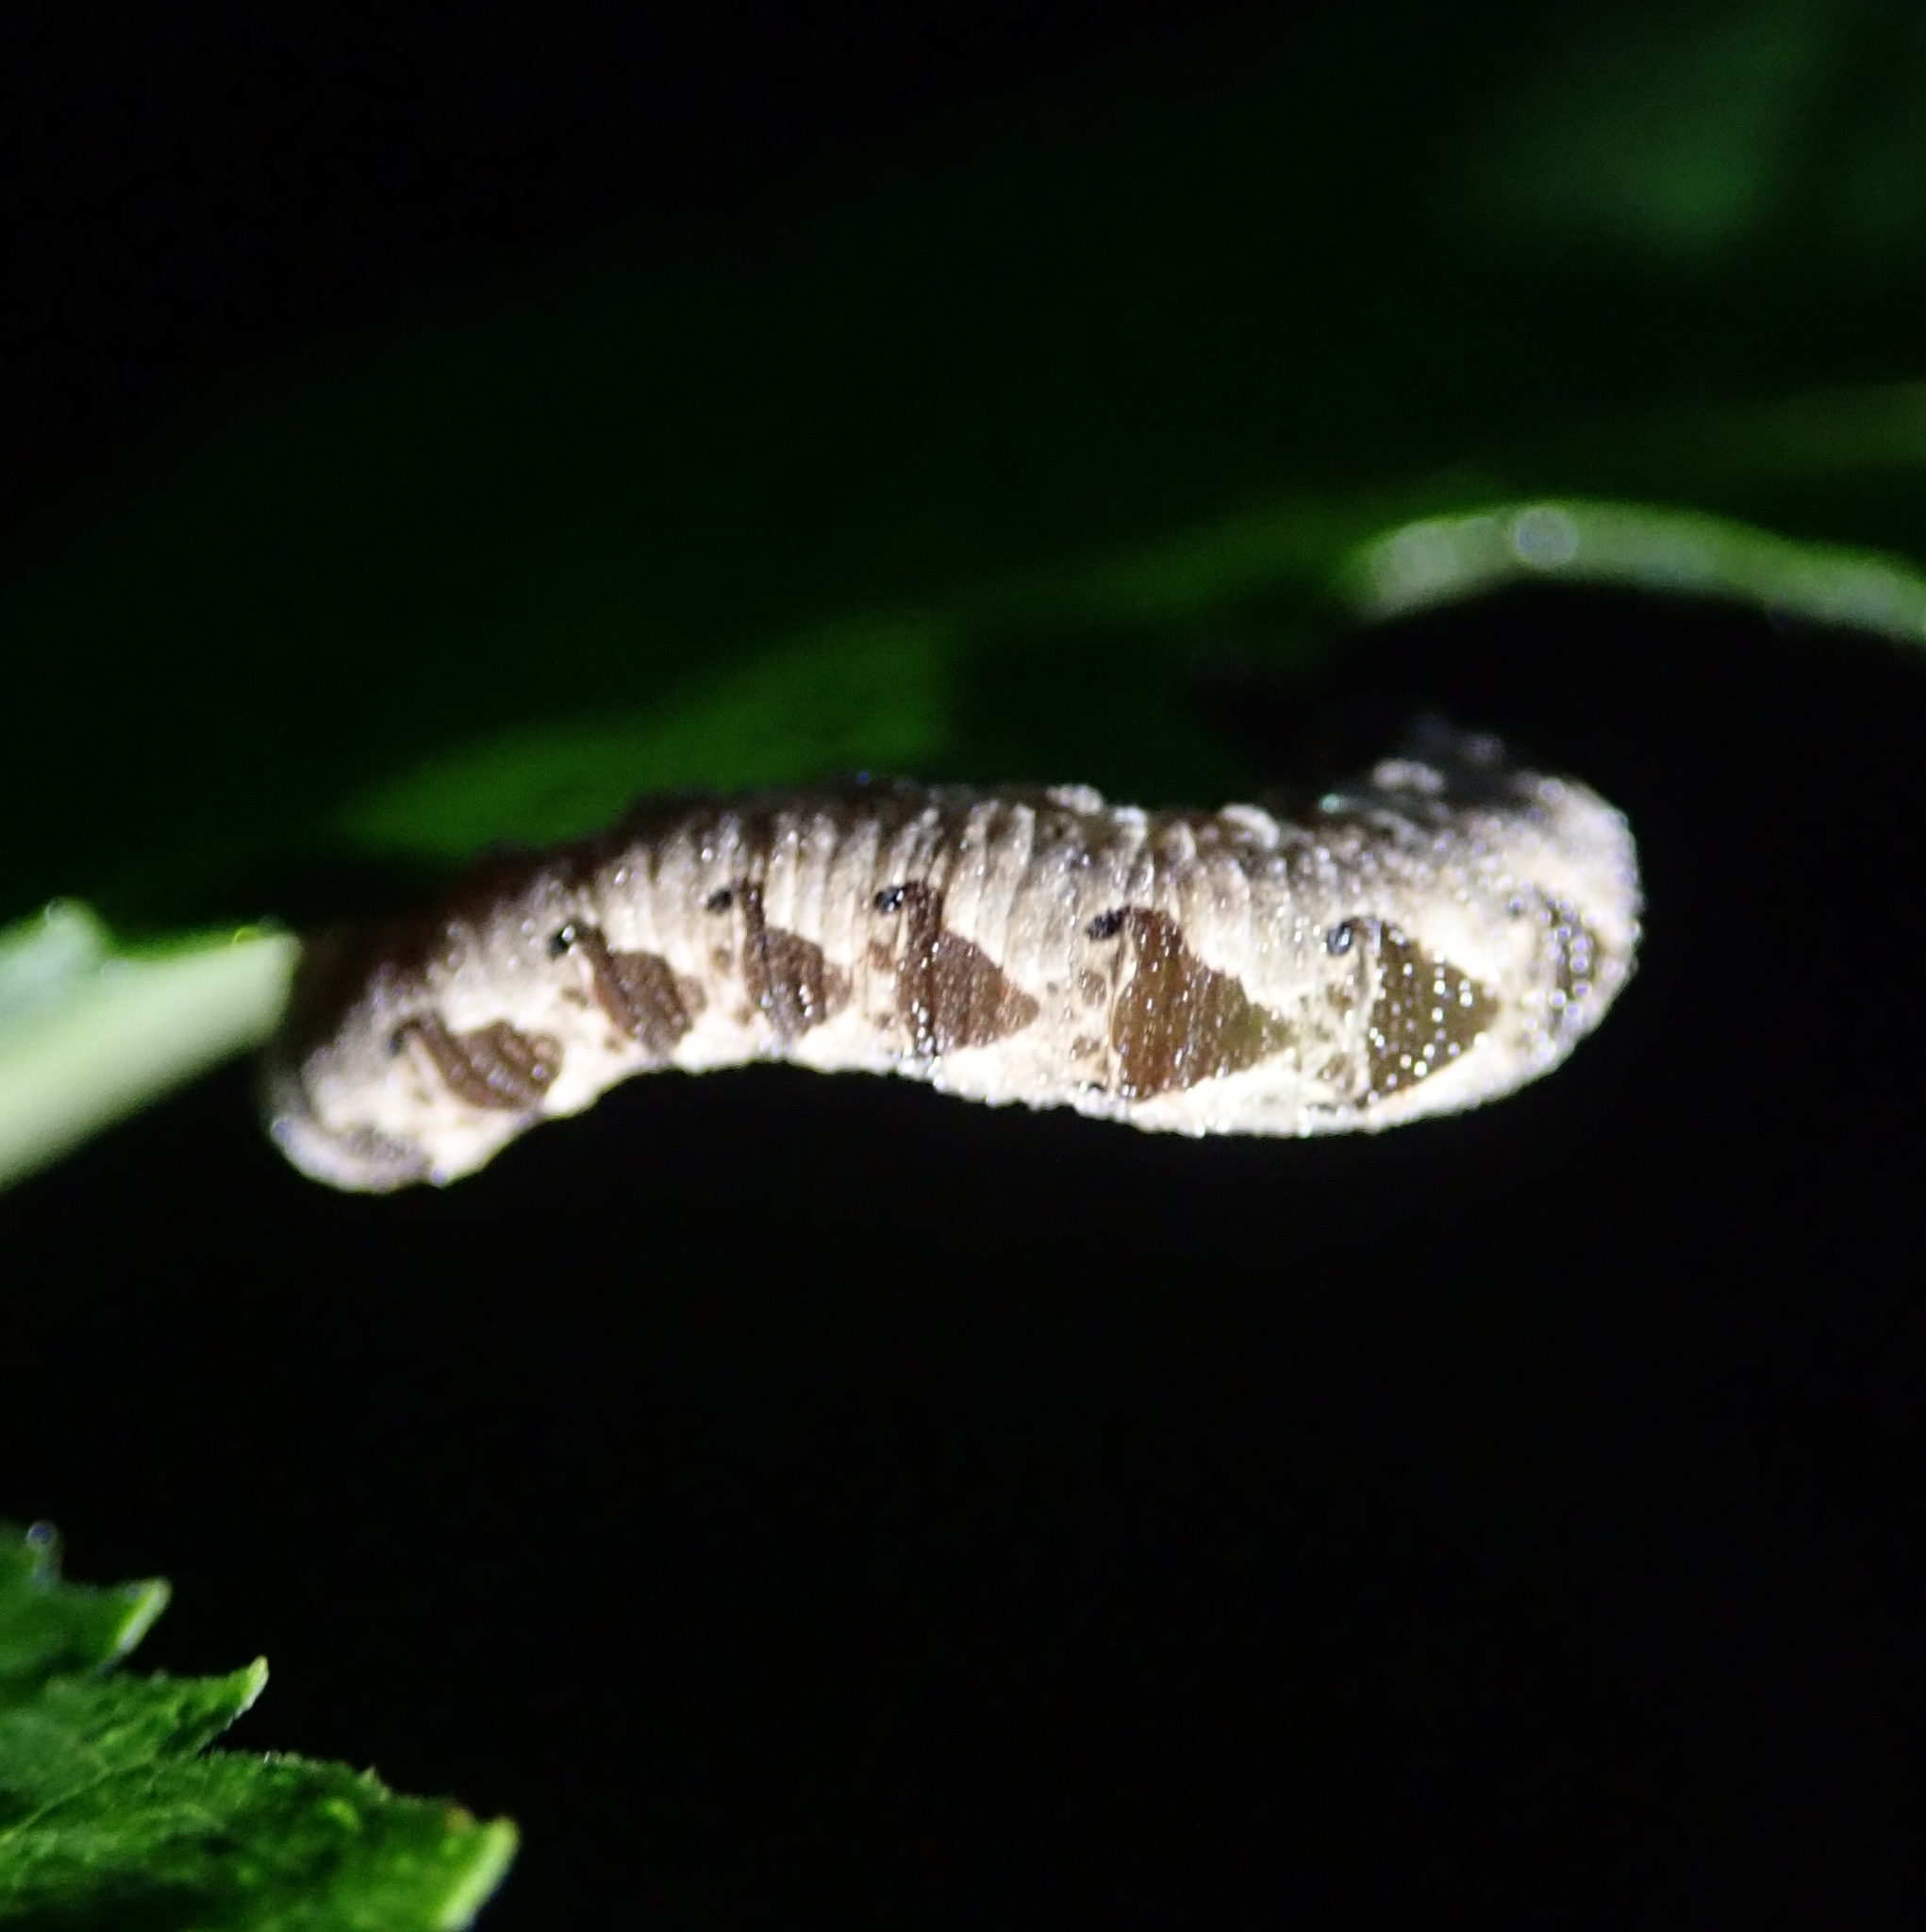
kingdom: Animalia
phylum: Arthropoda
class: Insecta
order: Hymenoptera
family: Tenthredinidae
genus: Tenthredo
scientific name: Tenthredo vespa
